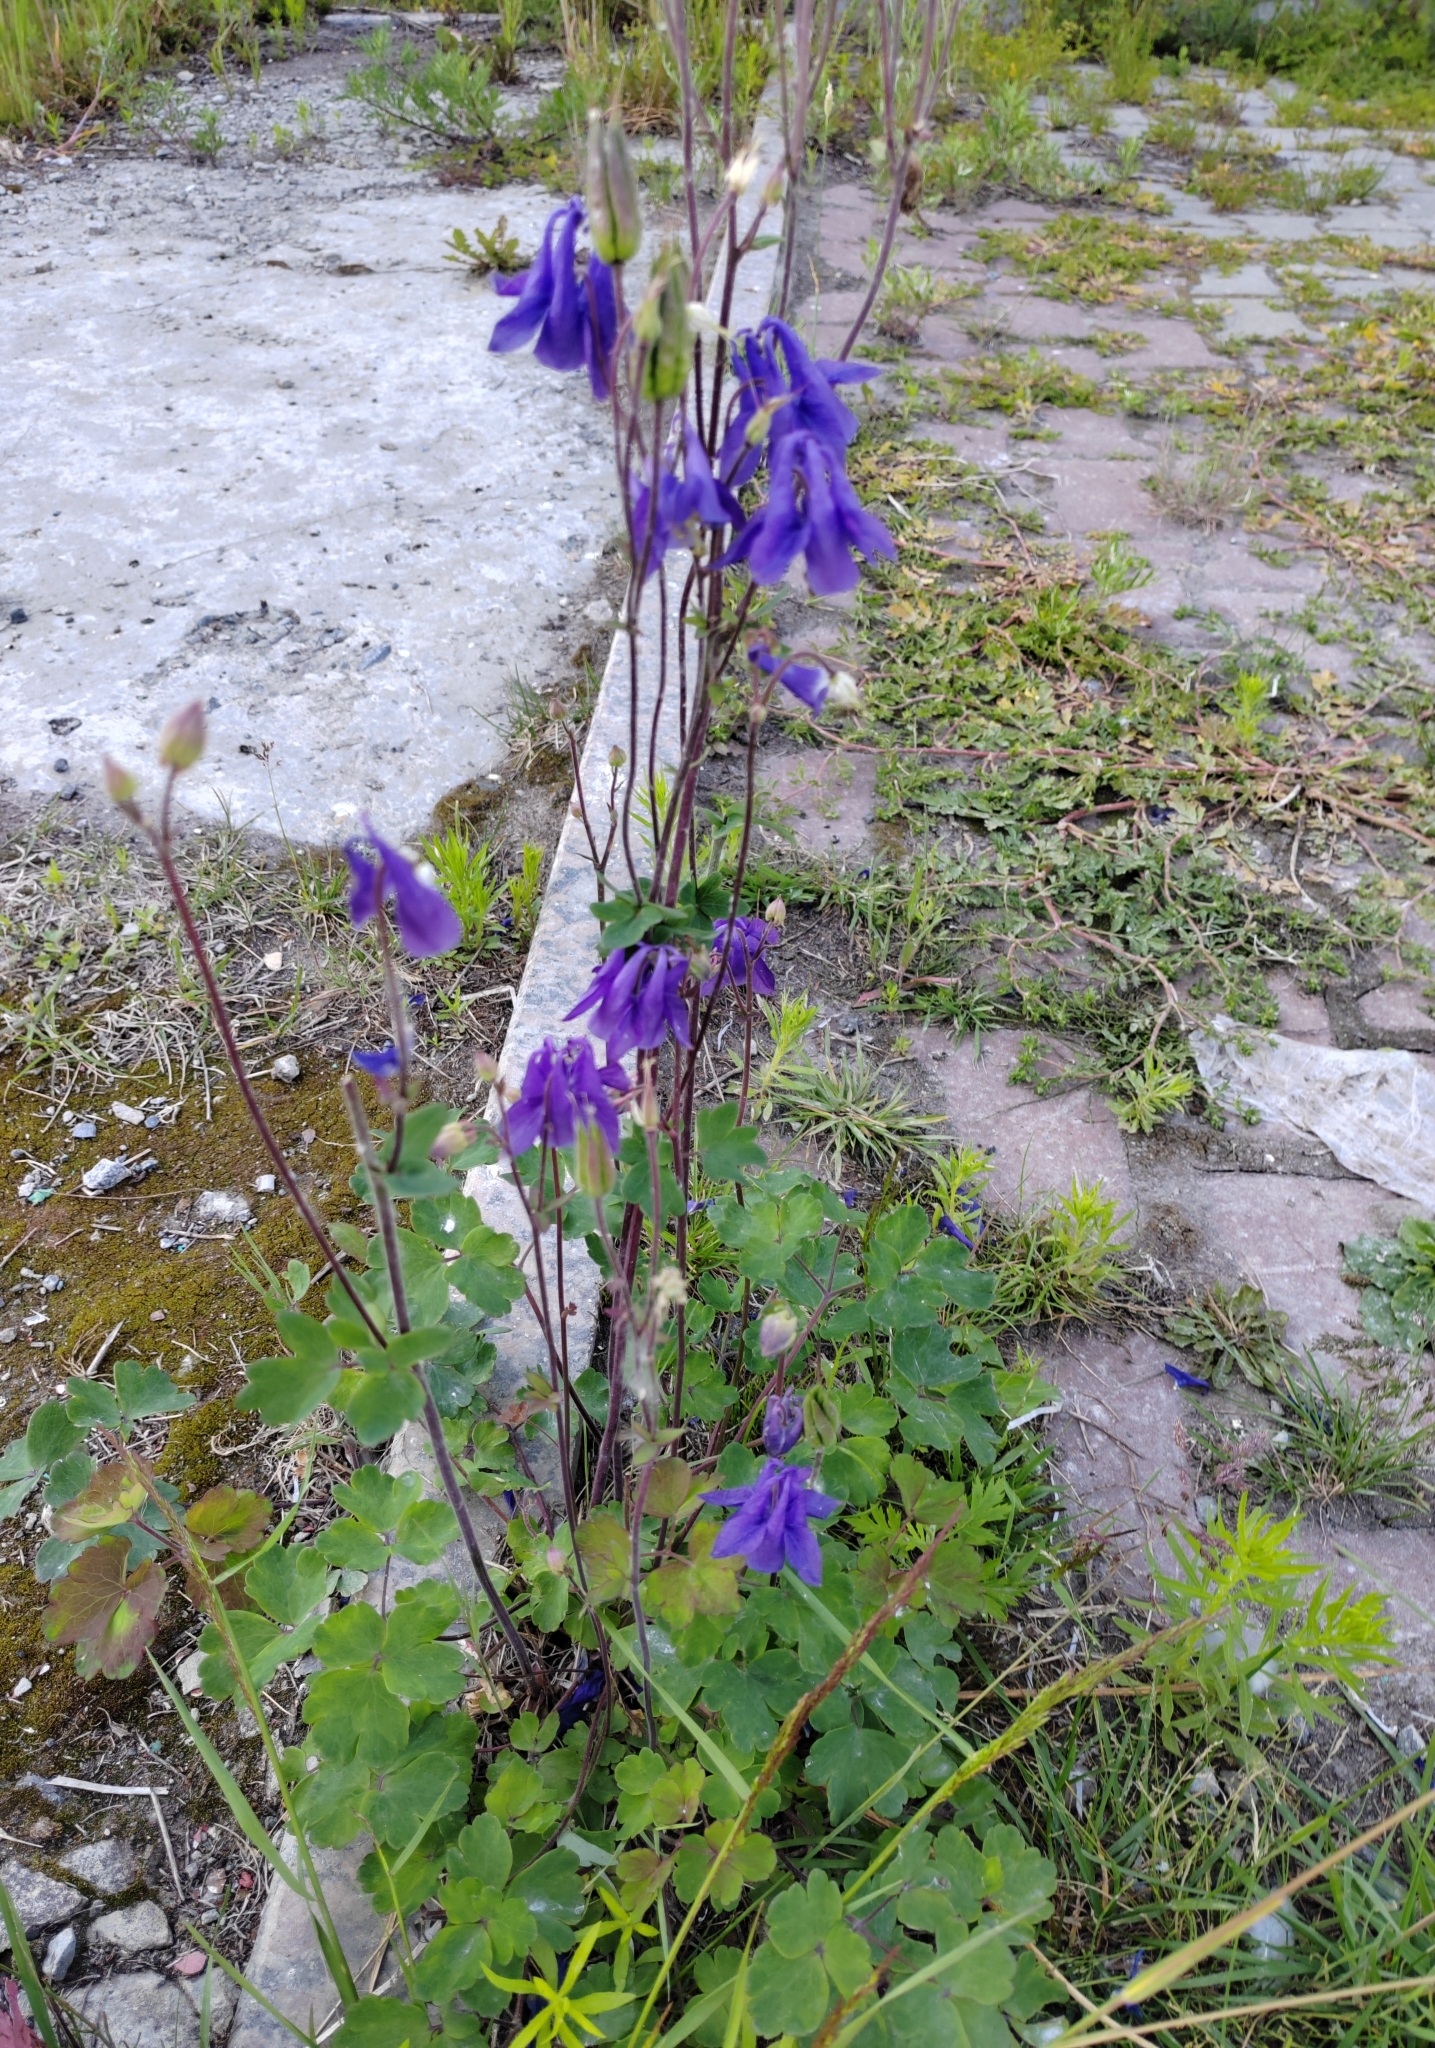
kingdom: Plantae
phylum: Tracheophyta
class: Magnoliopsida
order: Ranunculales
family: Ranunculaceae
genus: Aquilegia
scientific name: Aquilegia vulgaris
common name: Columbine
